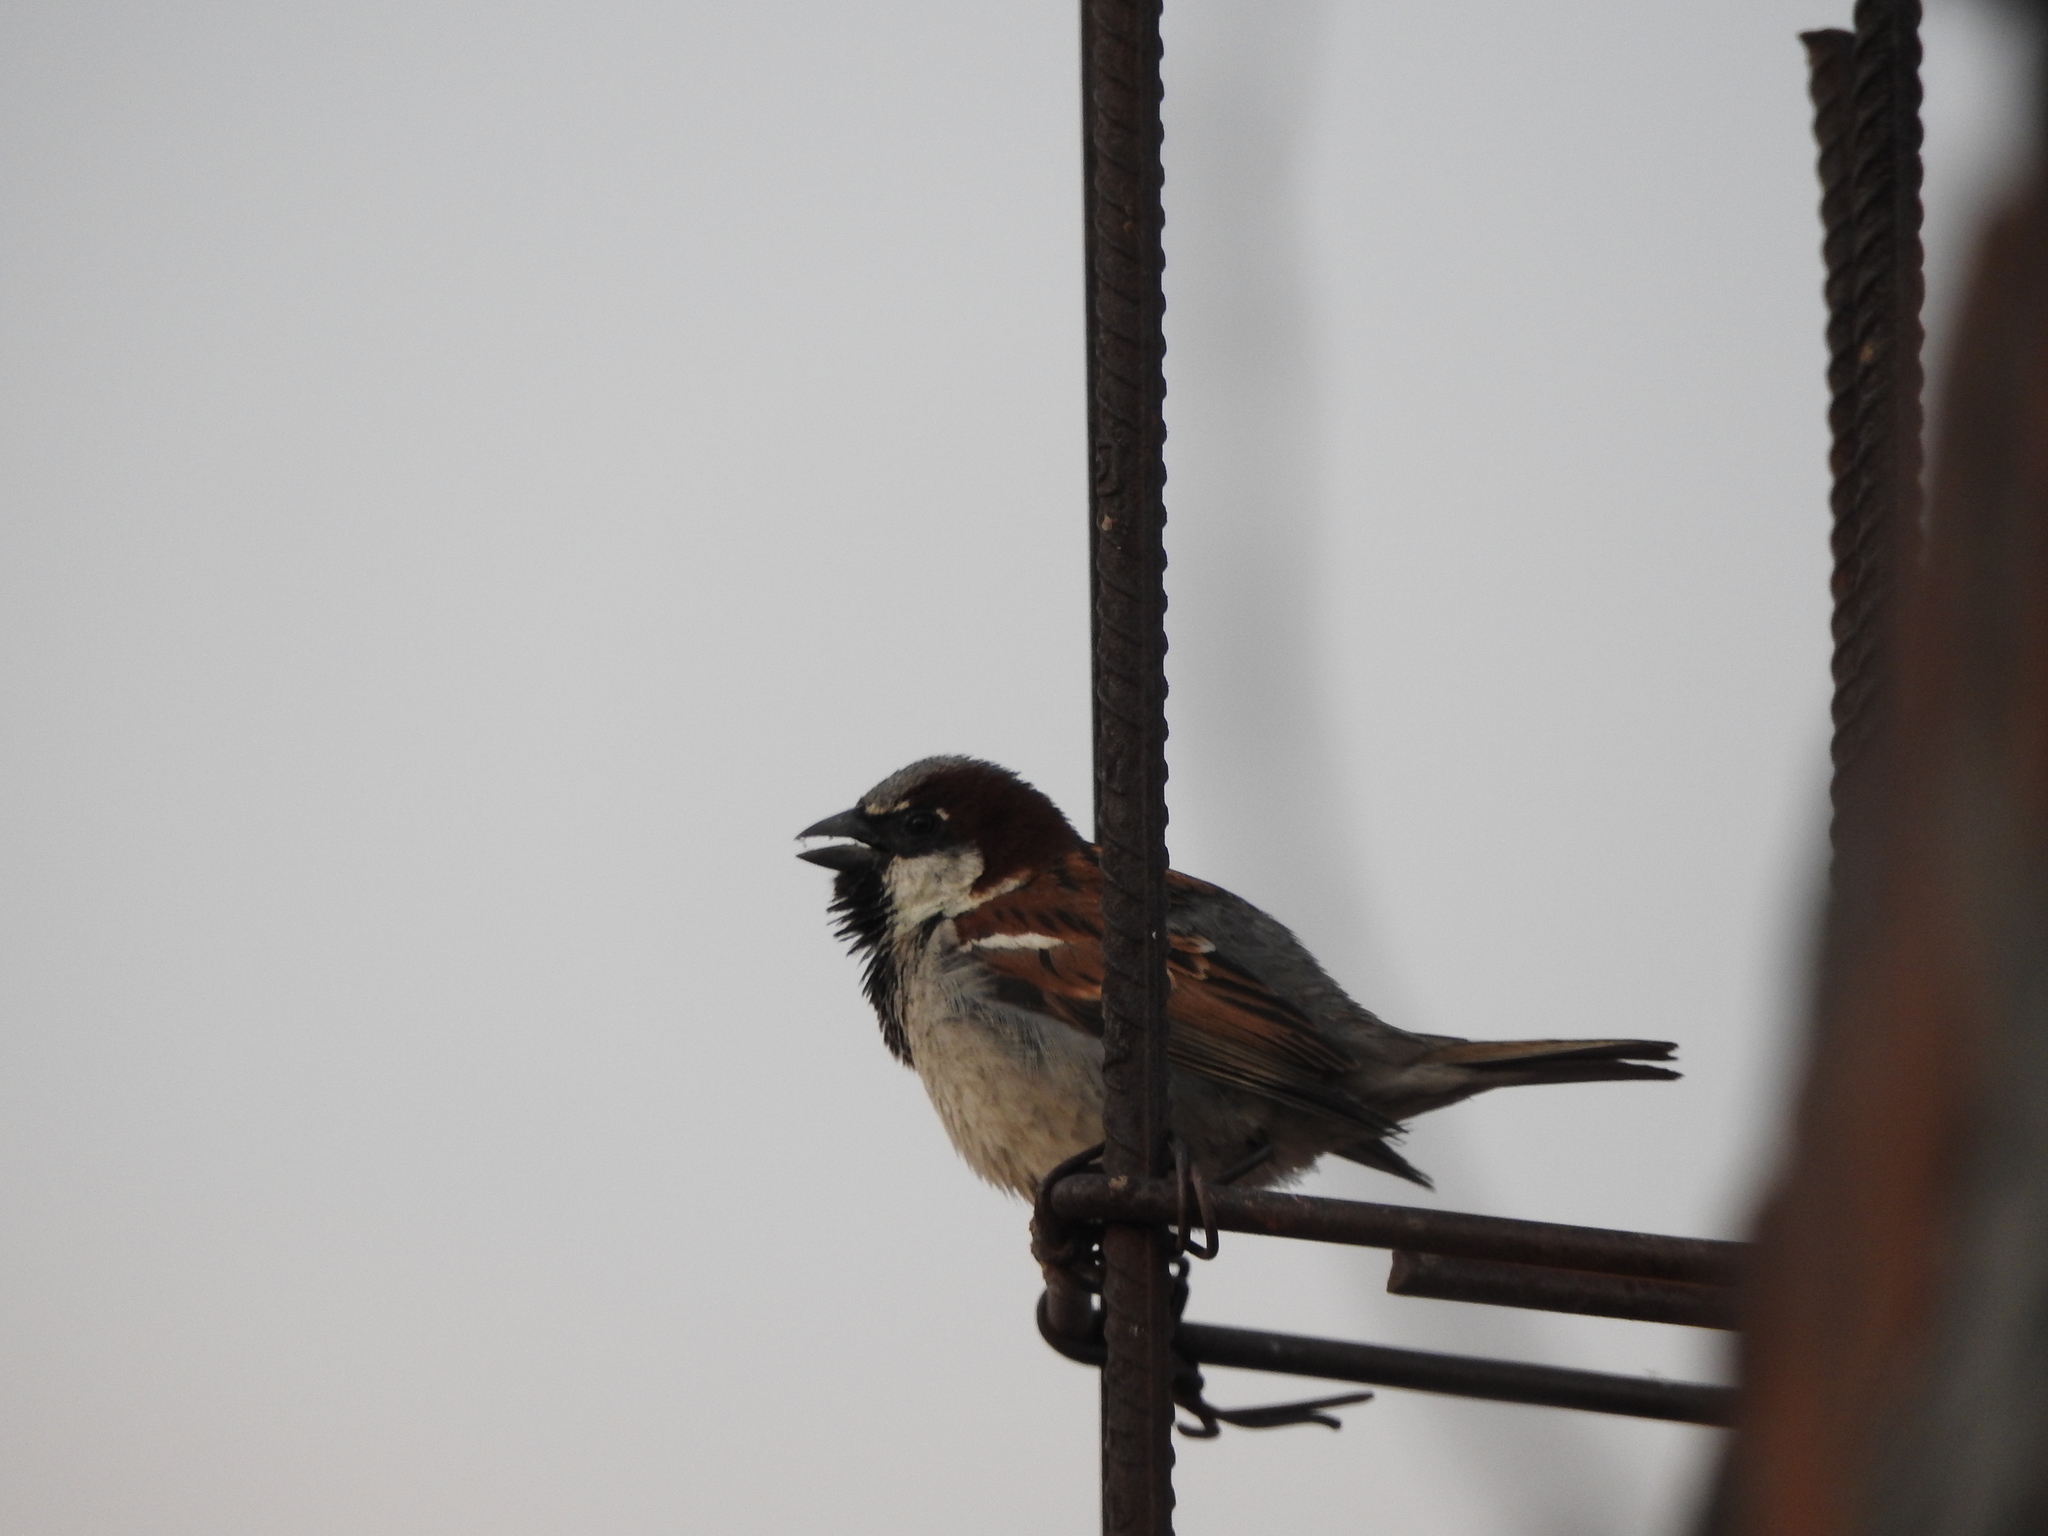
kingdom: Animalia
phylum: Chordata
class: Aves
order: Passeriformes
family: Passeridae
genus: Passer
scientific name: Passer domesticus
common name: House sparrow
